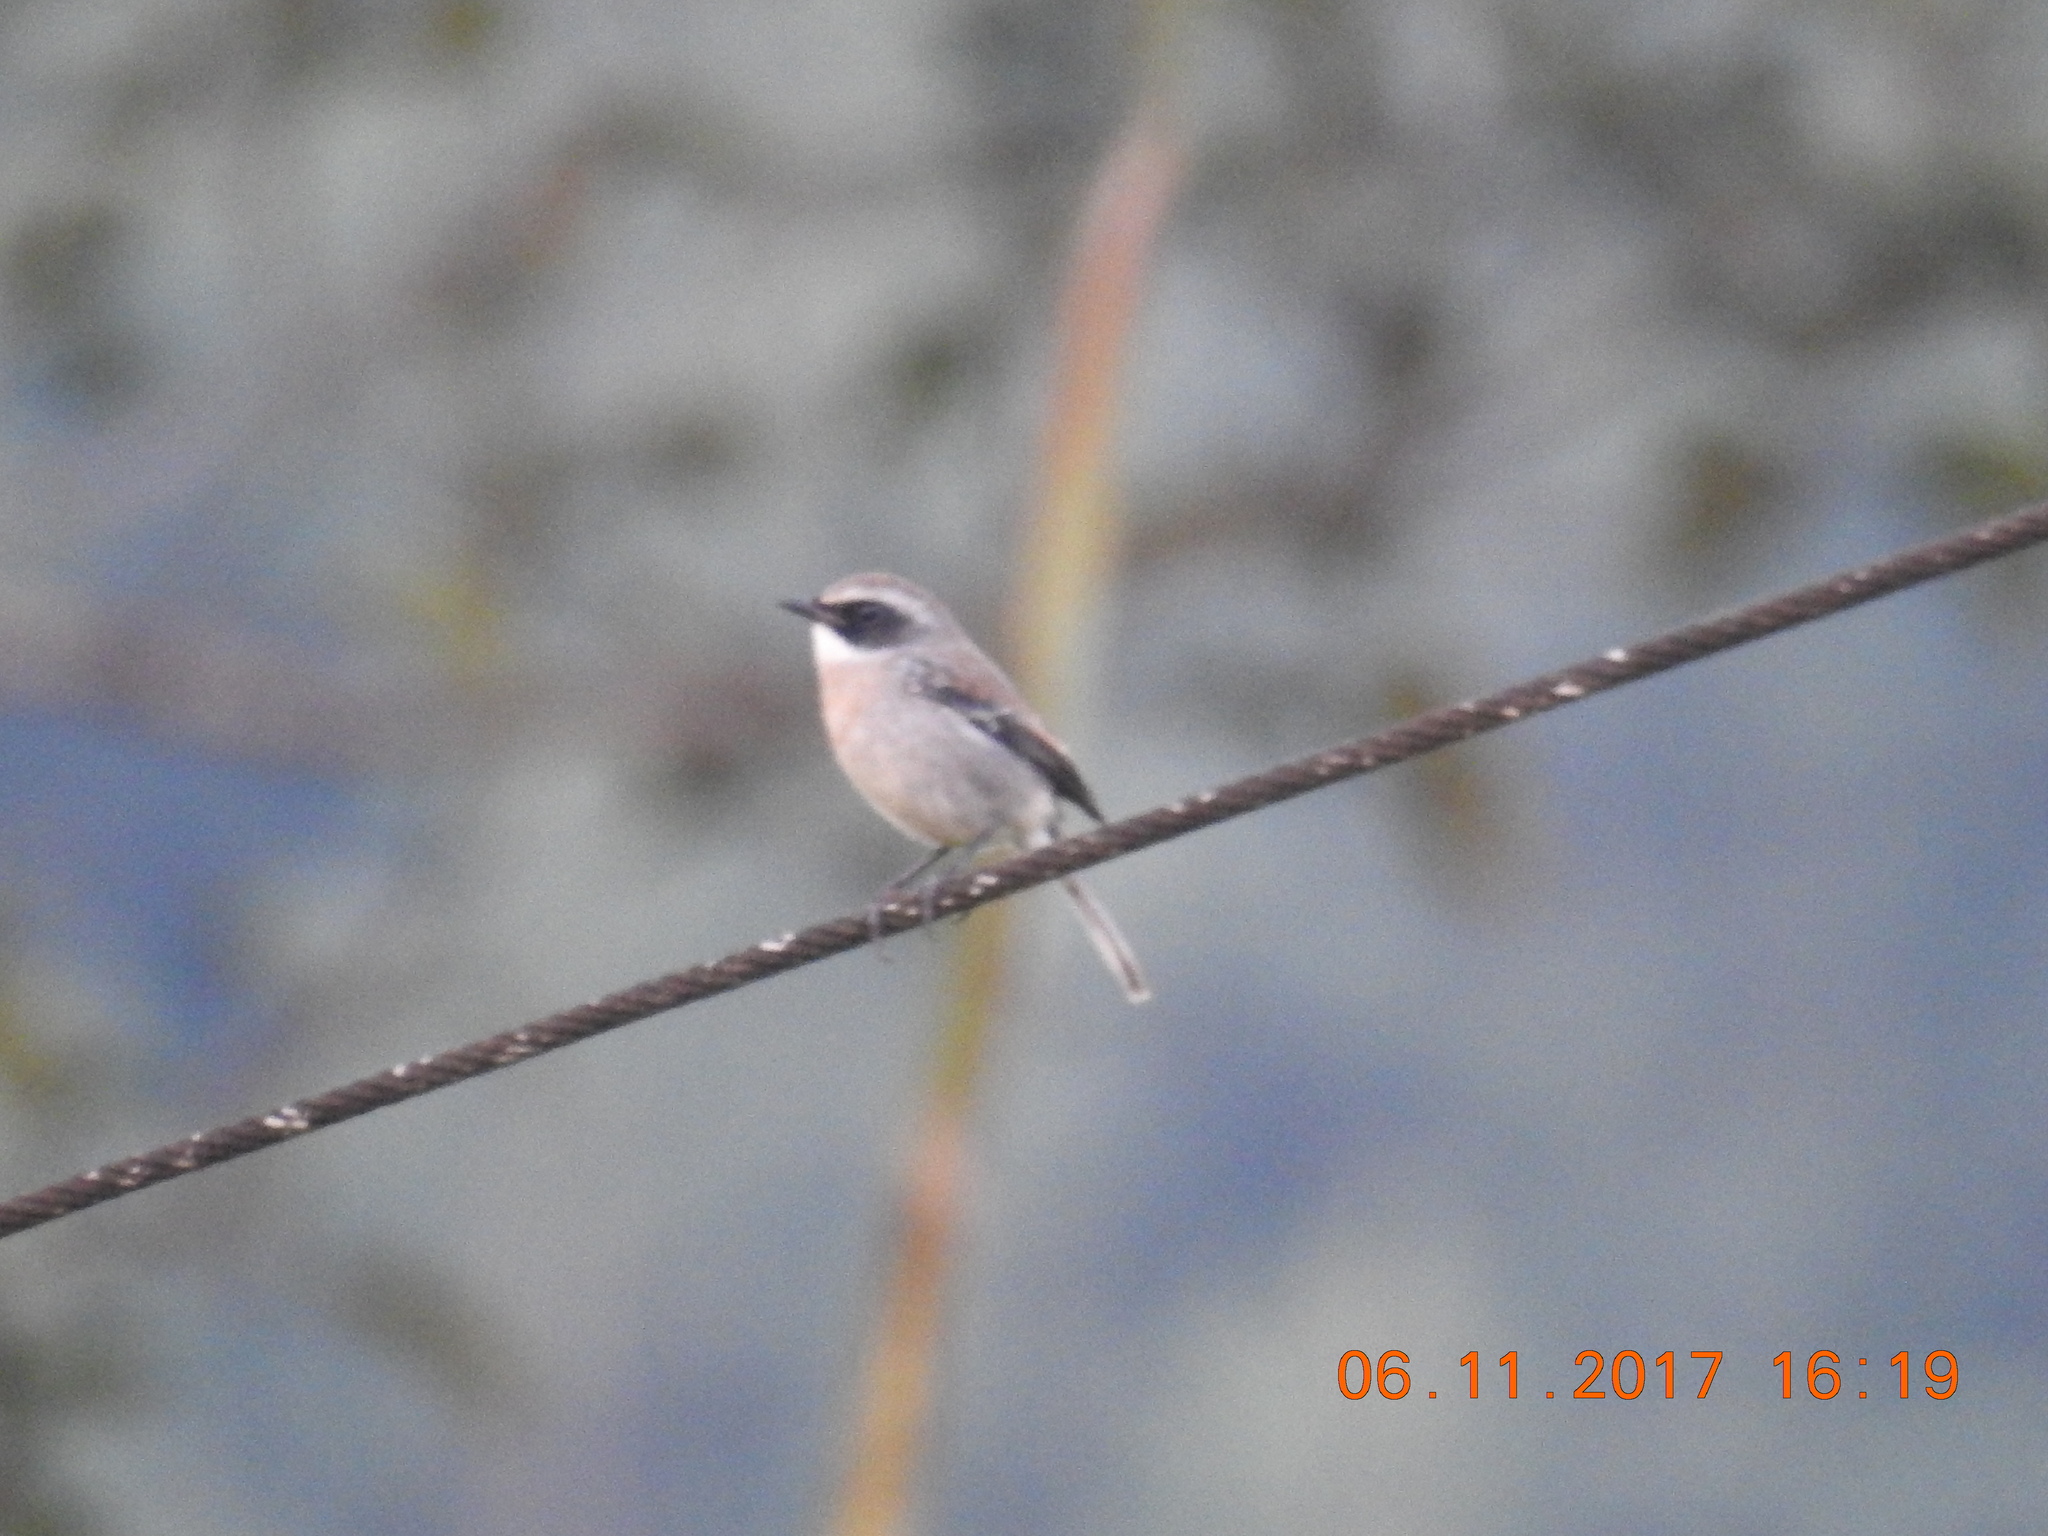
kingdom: Animalia
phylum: Chordata
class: Aves
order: Passeriformes
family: Muscicapidae
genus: Saxicola
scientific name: Saxicola ferreus
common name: Grey bush chat
